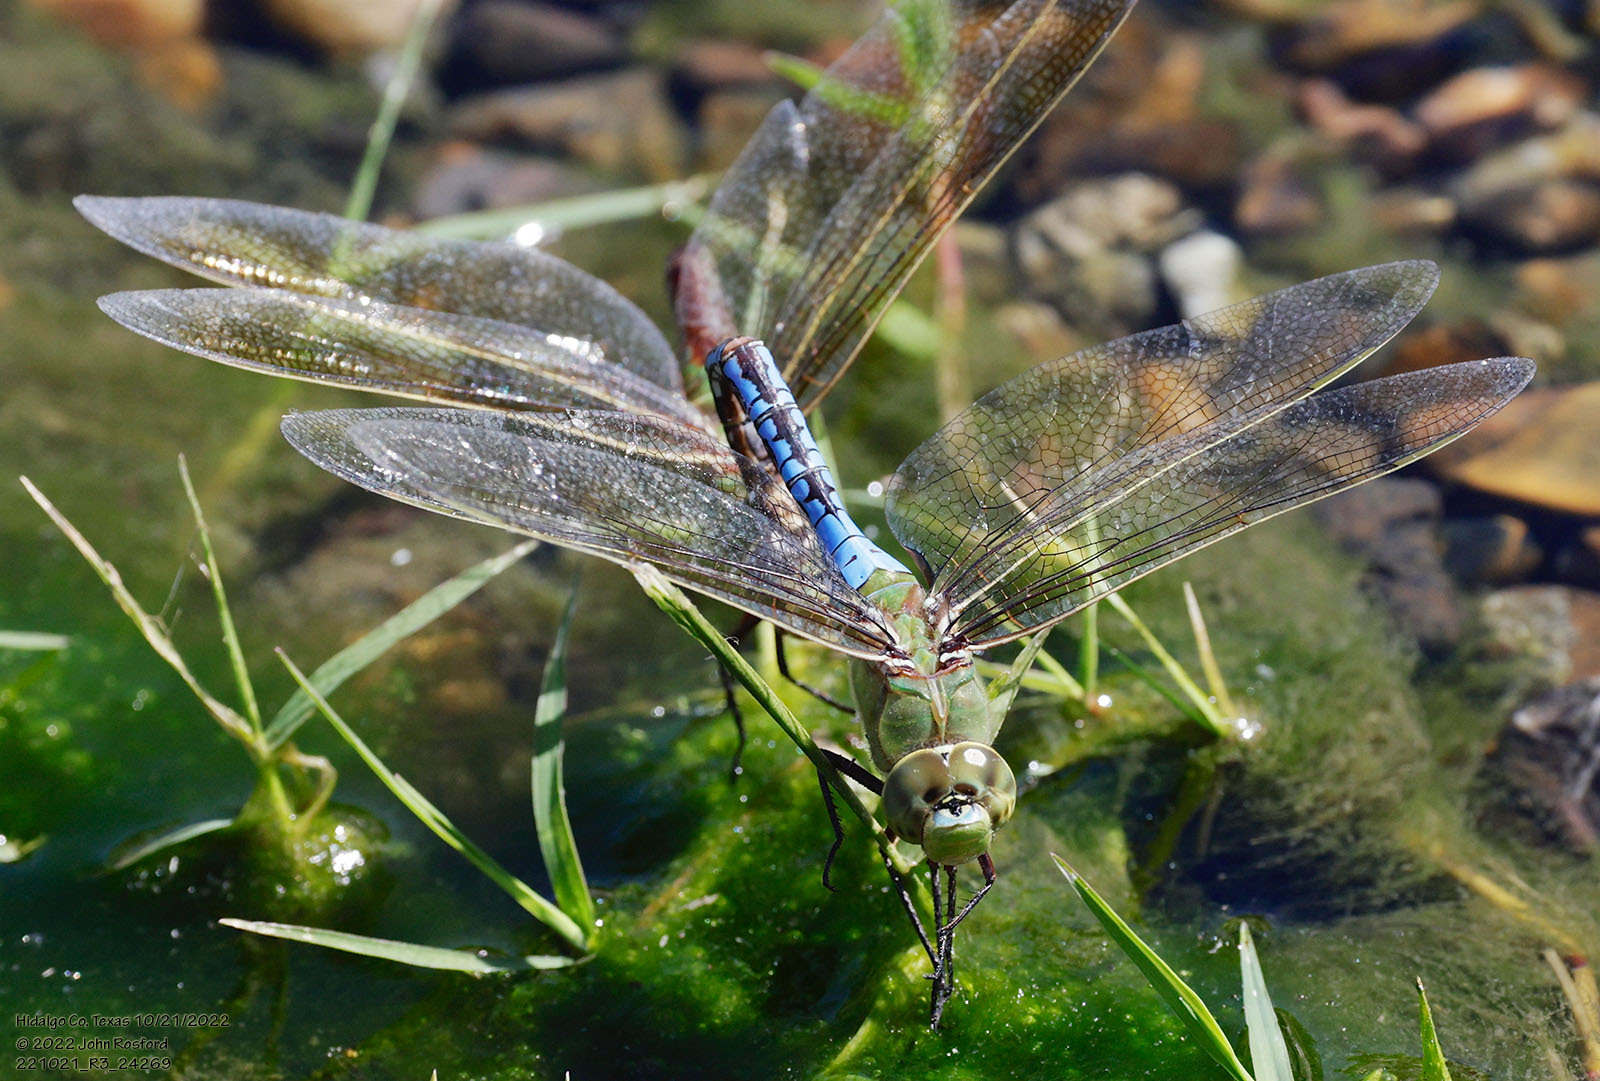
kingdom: Animalia
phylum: Arthropoda
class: Insecta
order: Odonata
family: Aeshnidae
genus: Anax
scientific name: Anax junius
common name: Common green darner
